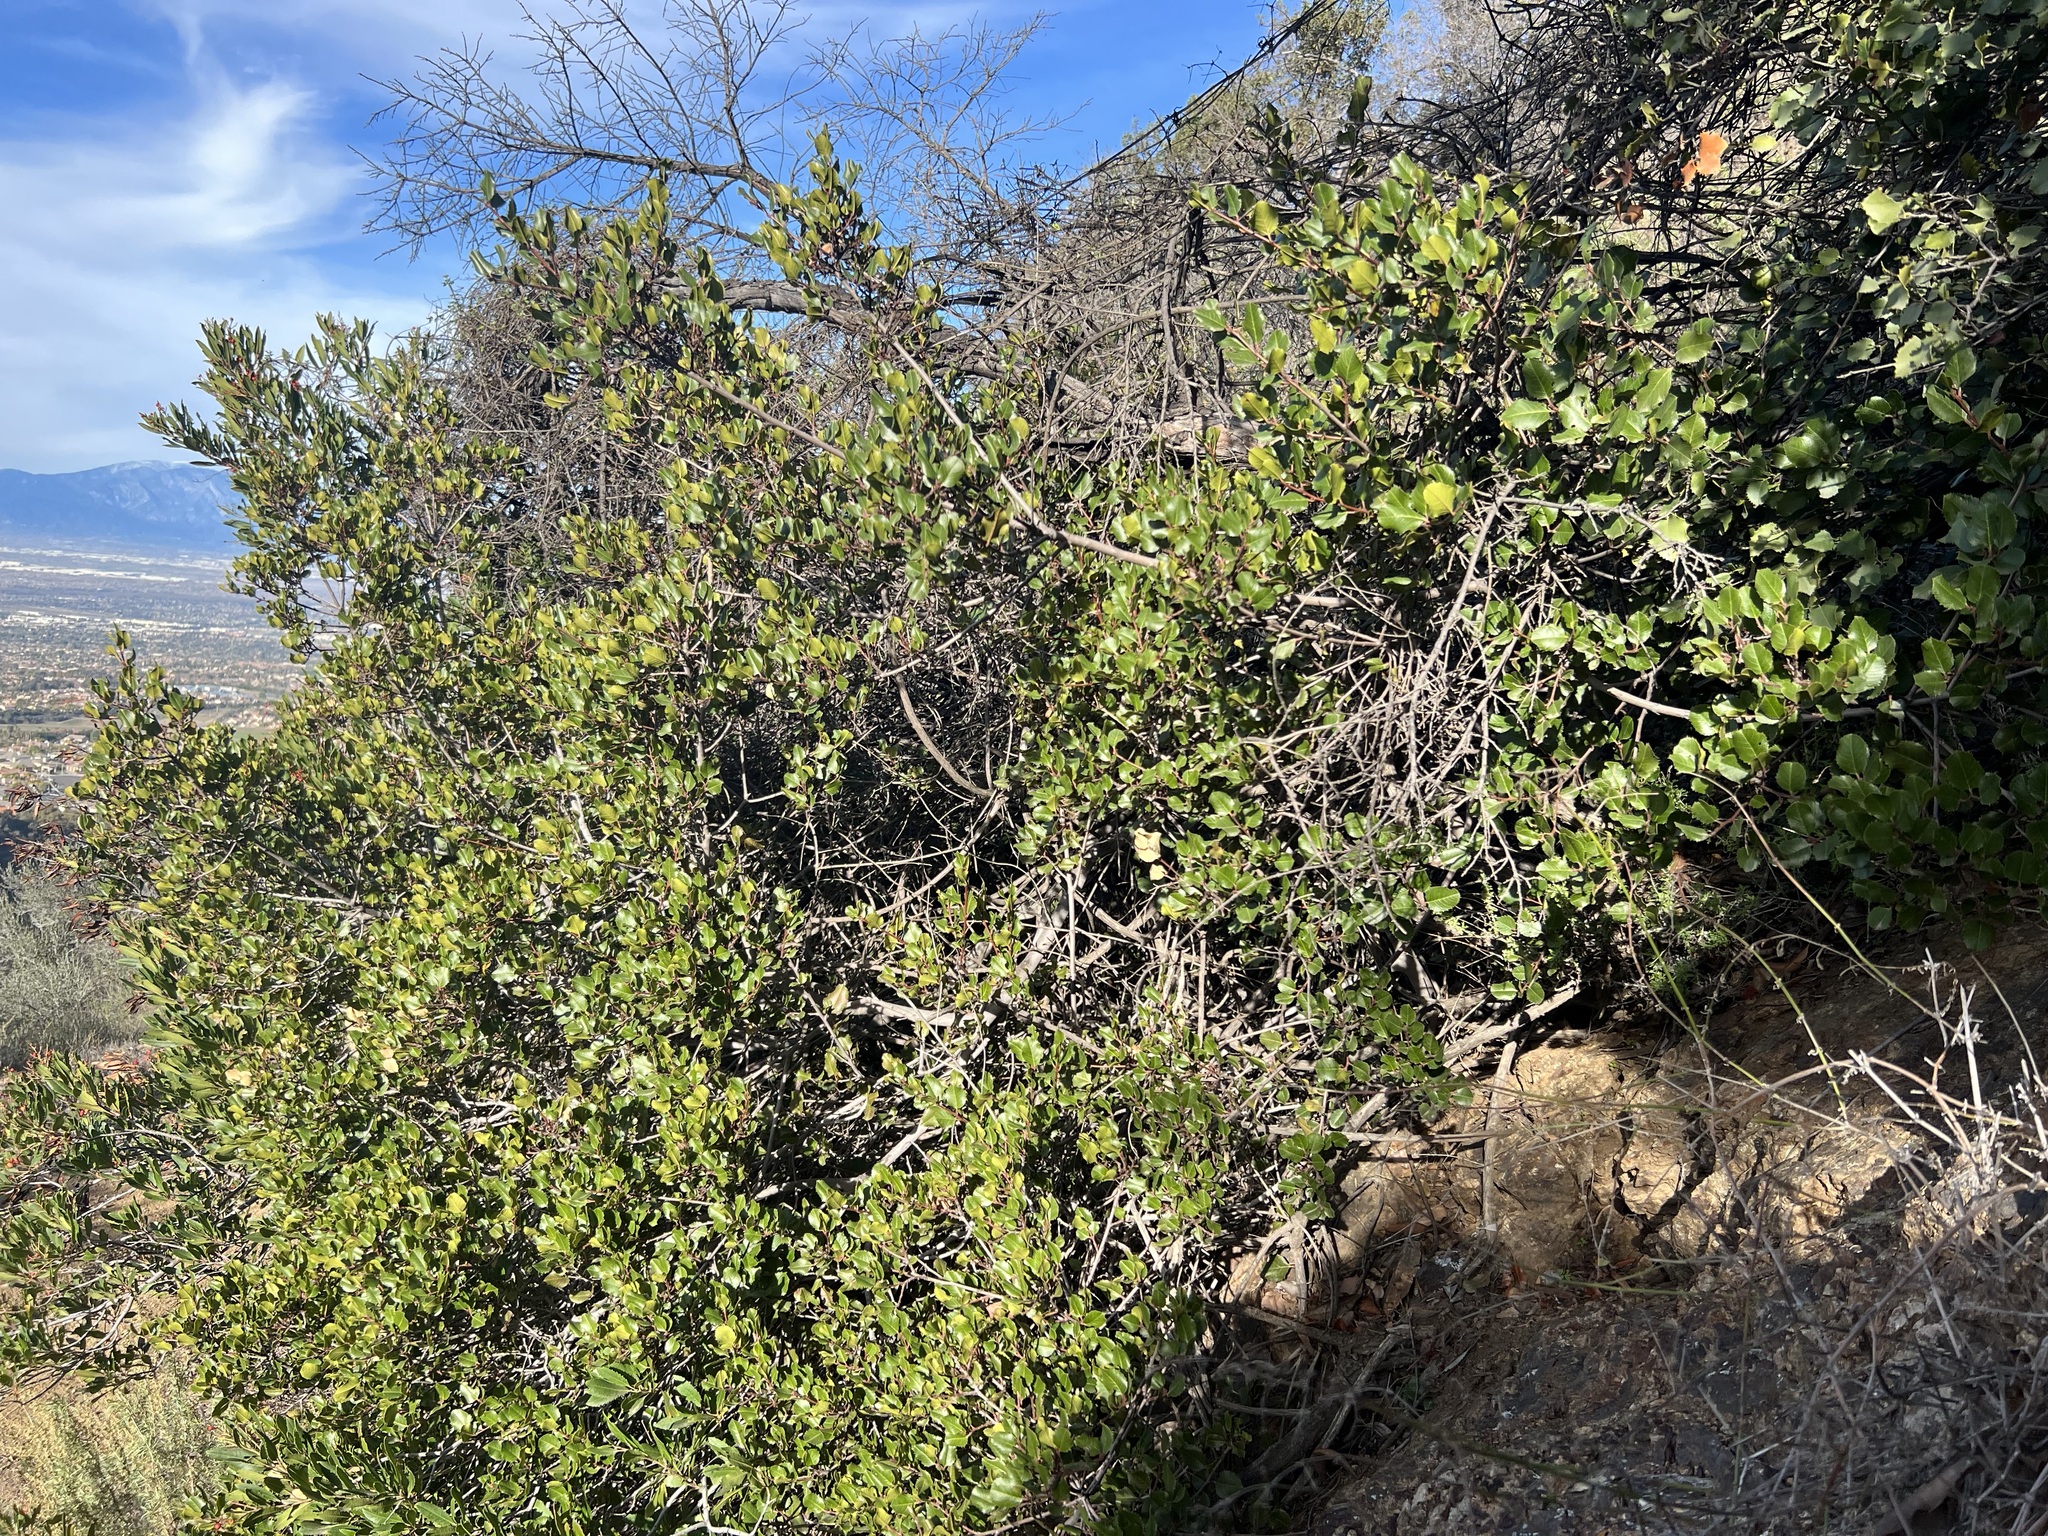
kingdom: Plantae
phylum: Tracheophyta
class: Magnoliopsida
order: Rosales
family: Rhamnaceae
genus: Endotropis
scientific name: Endotropis crocea
